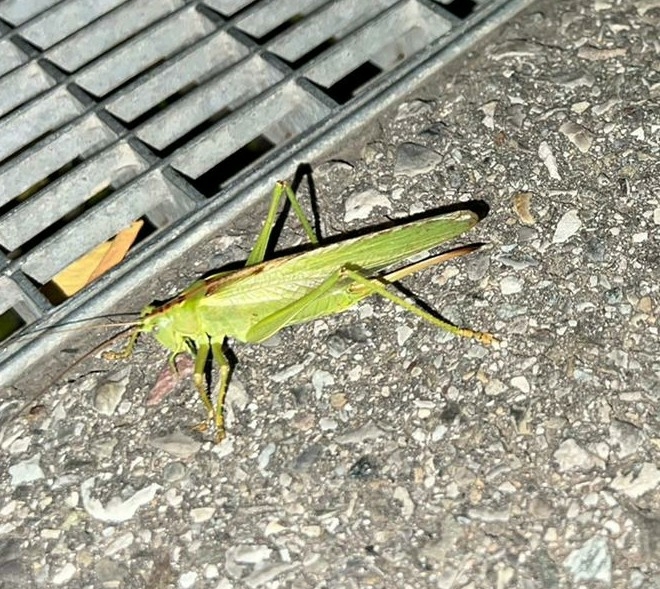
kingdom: Animalia
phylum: Arthropoda
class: Insecta
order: Orthoptera
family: Tettigoniidae
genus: Tettigonia
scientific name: Tettigonia viridissima
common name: Great green bush-cricket
